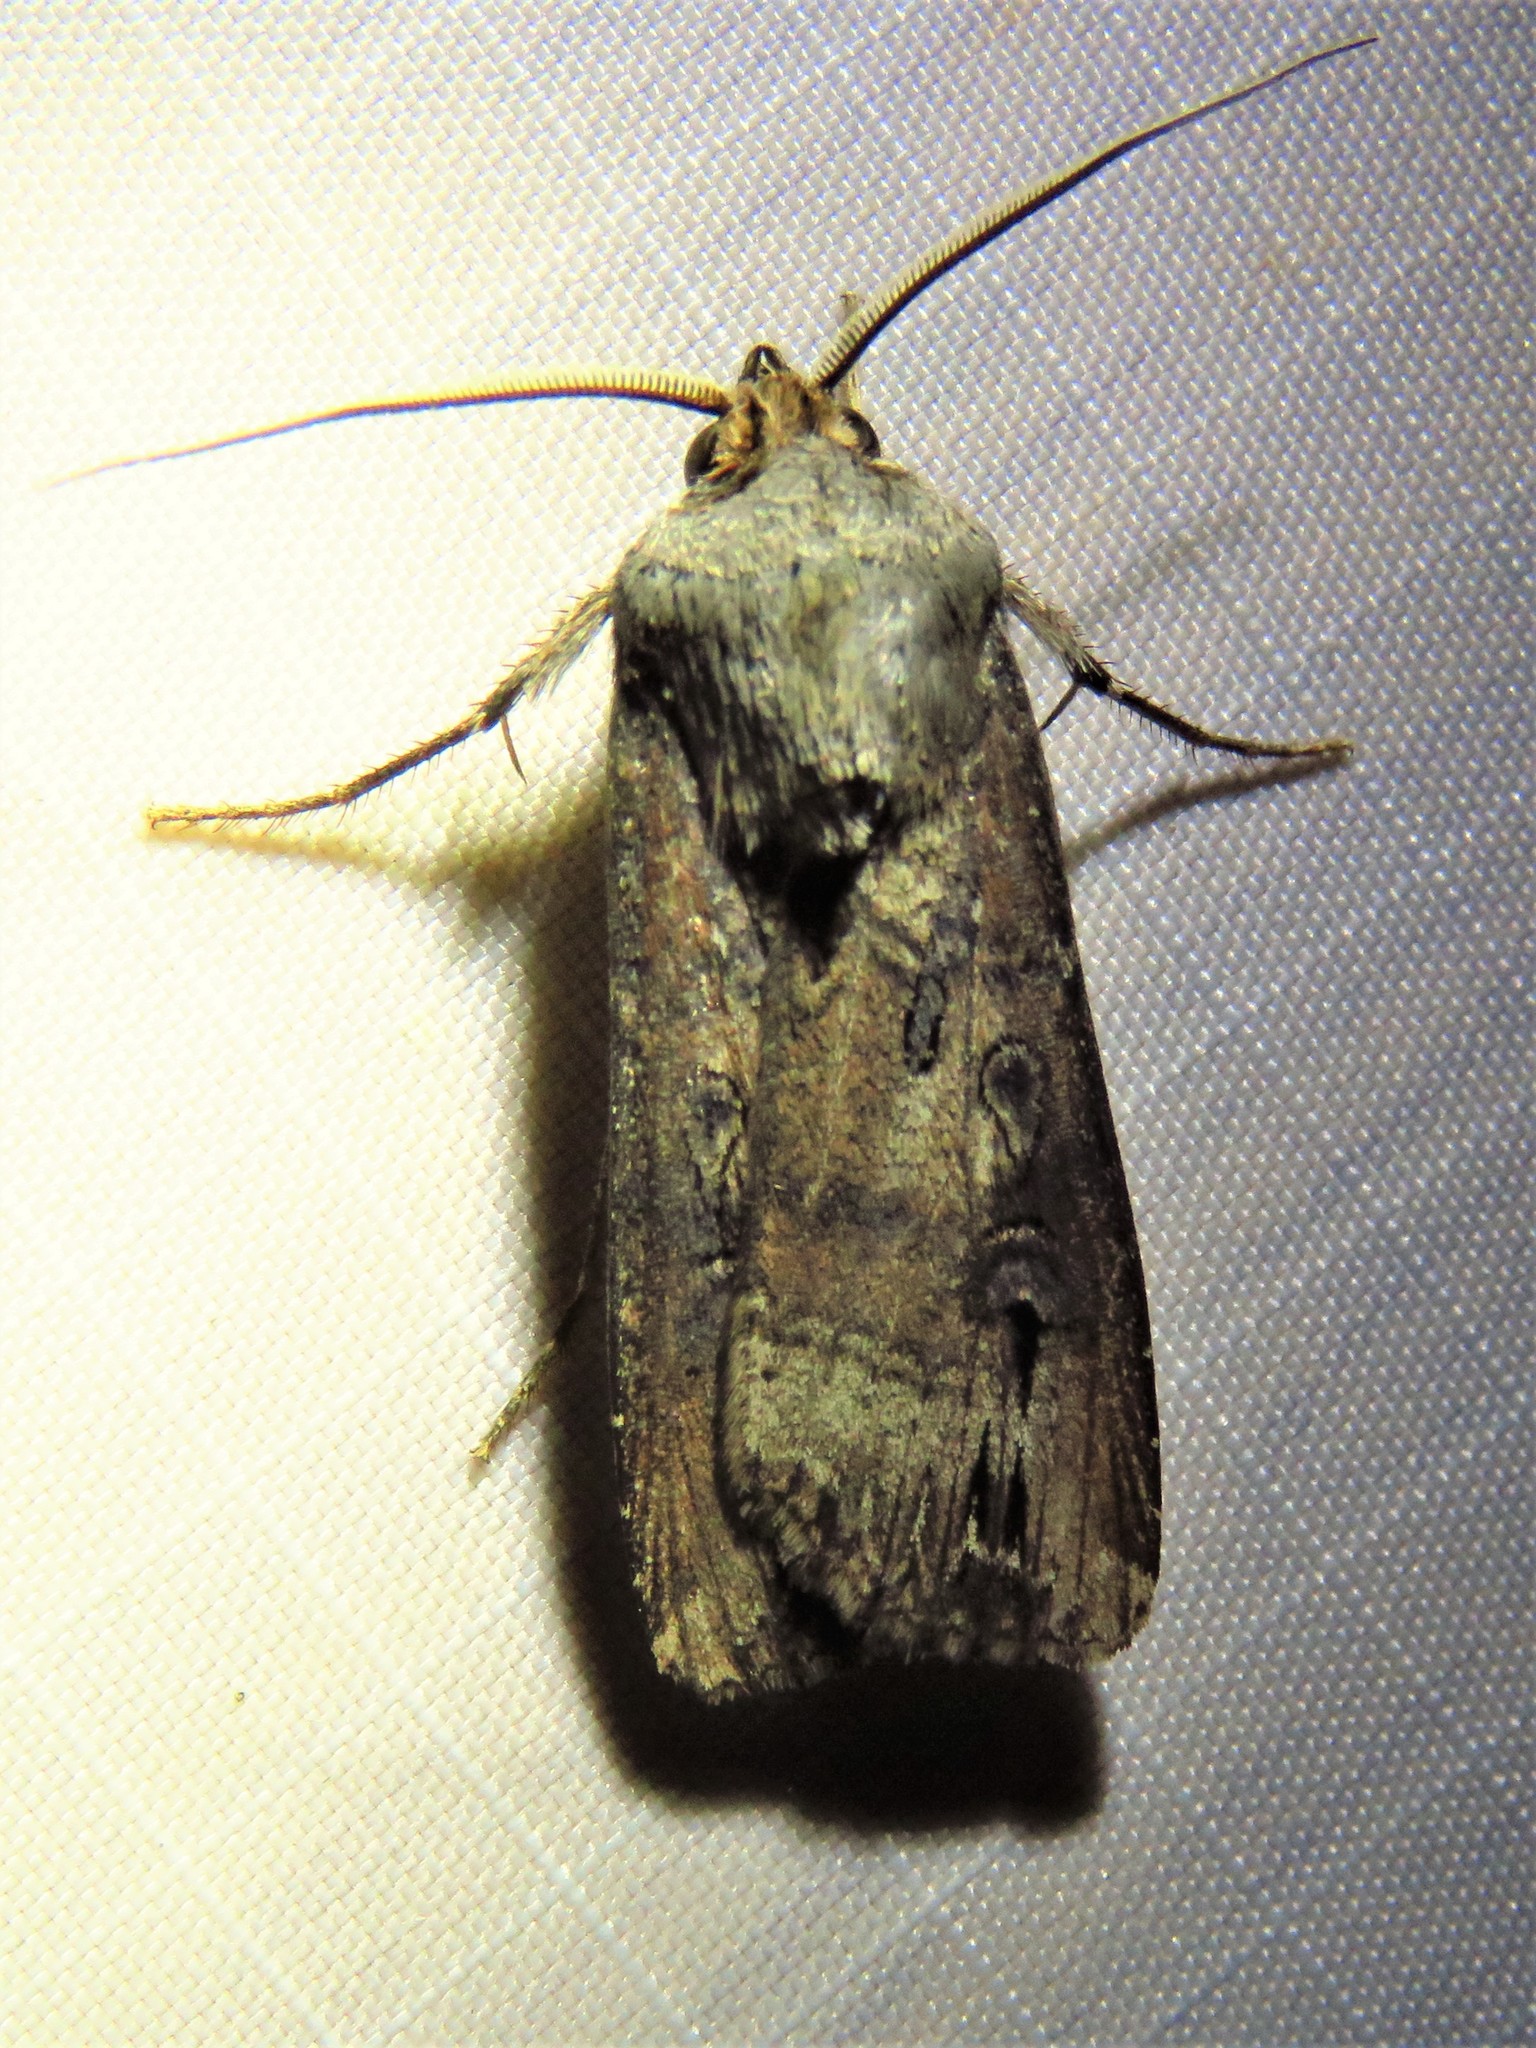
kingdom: Animalia
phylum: Arthropoda
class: Insecta
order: Lepidoptera
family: Noctuidae
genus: Agrotis
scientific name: Agrotis ipsilon
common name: Dark sword-grass
